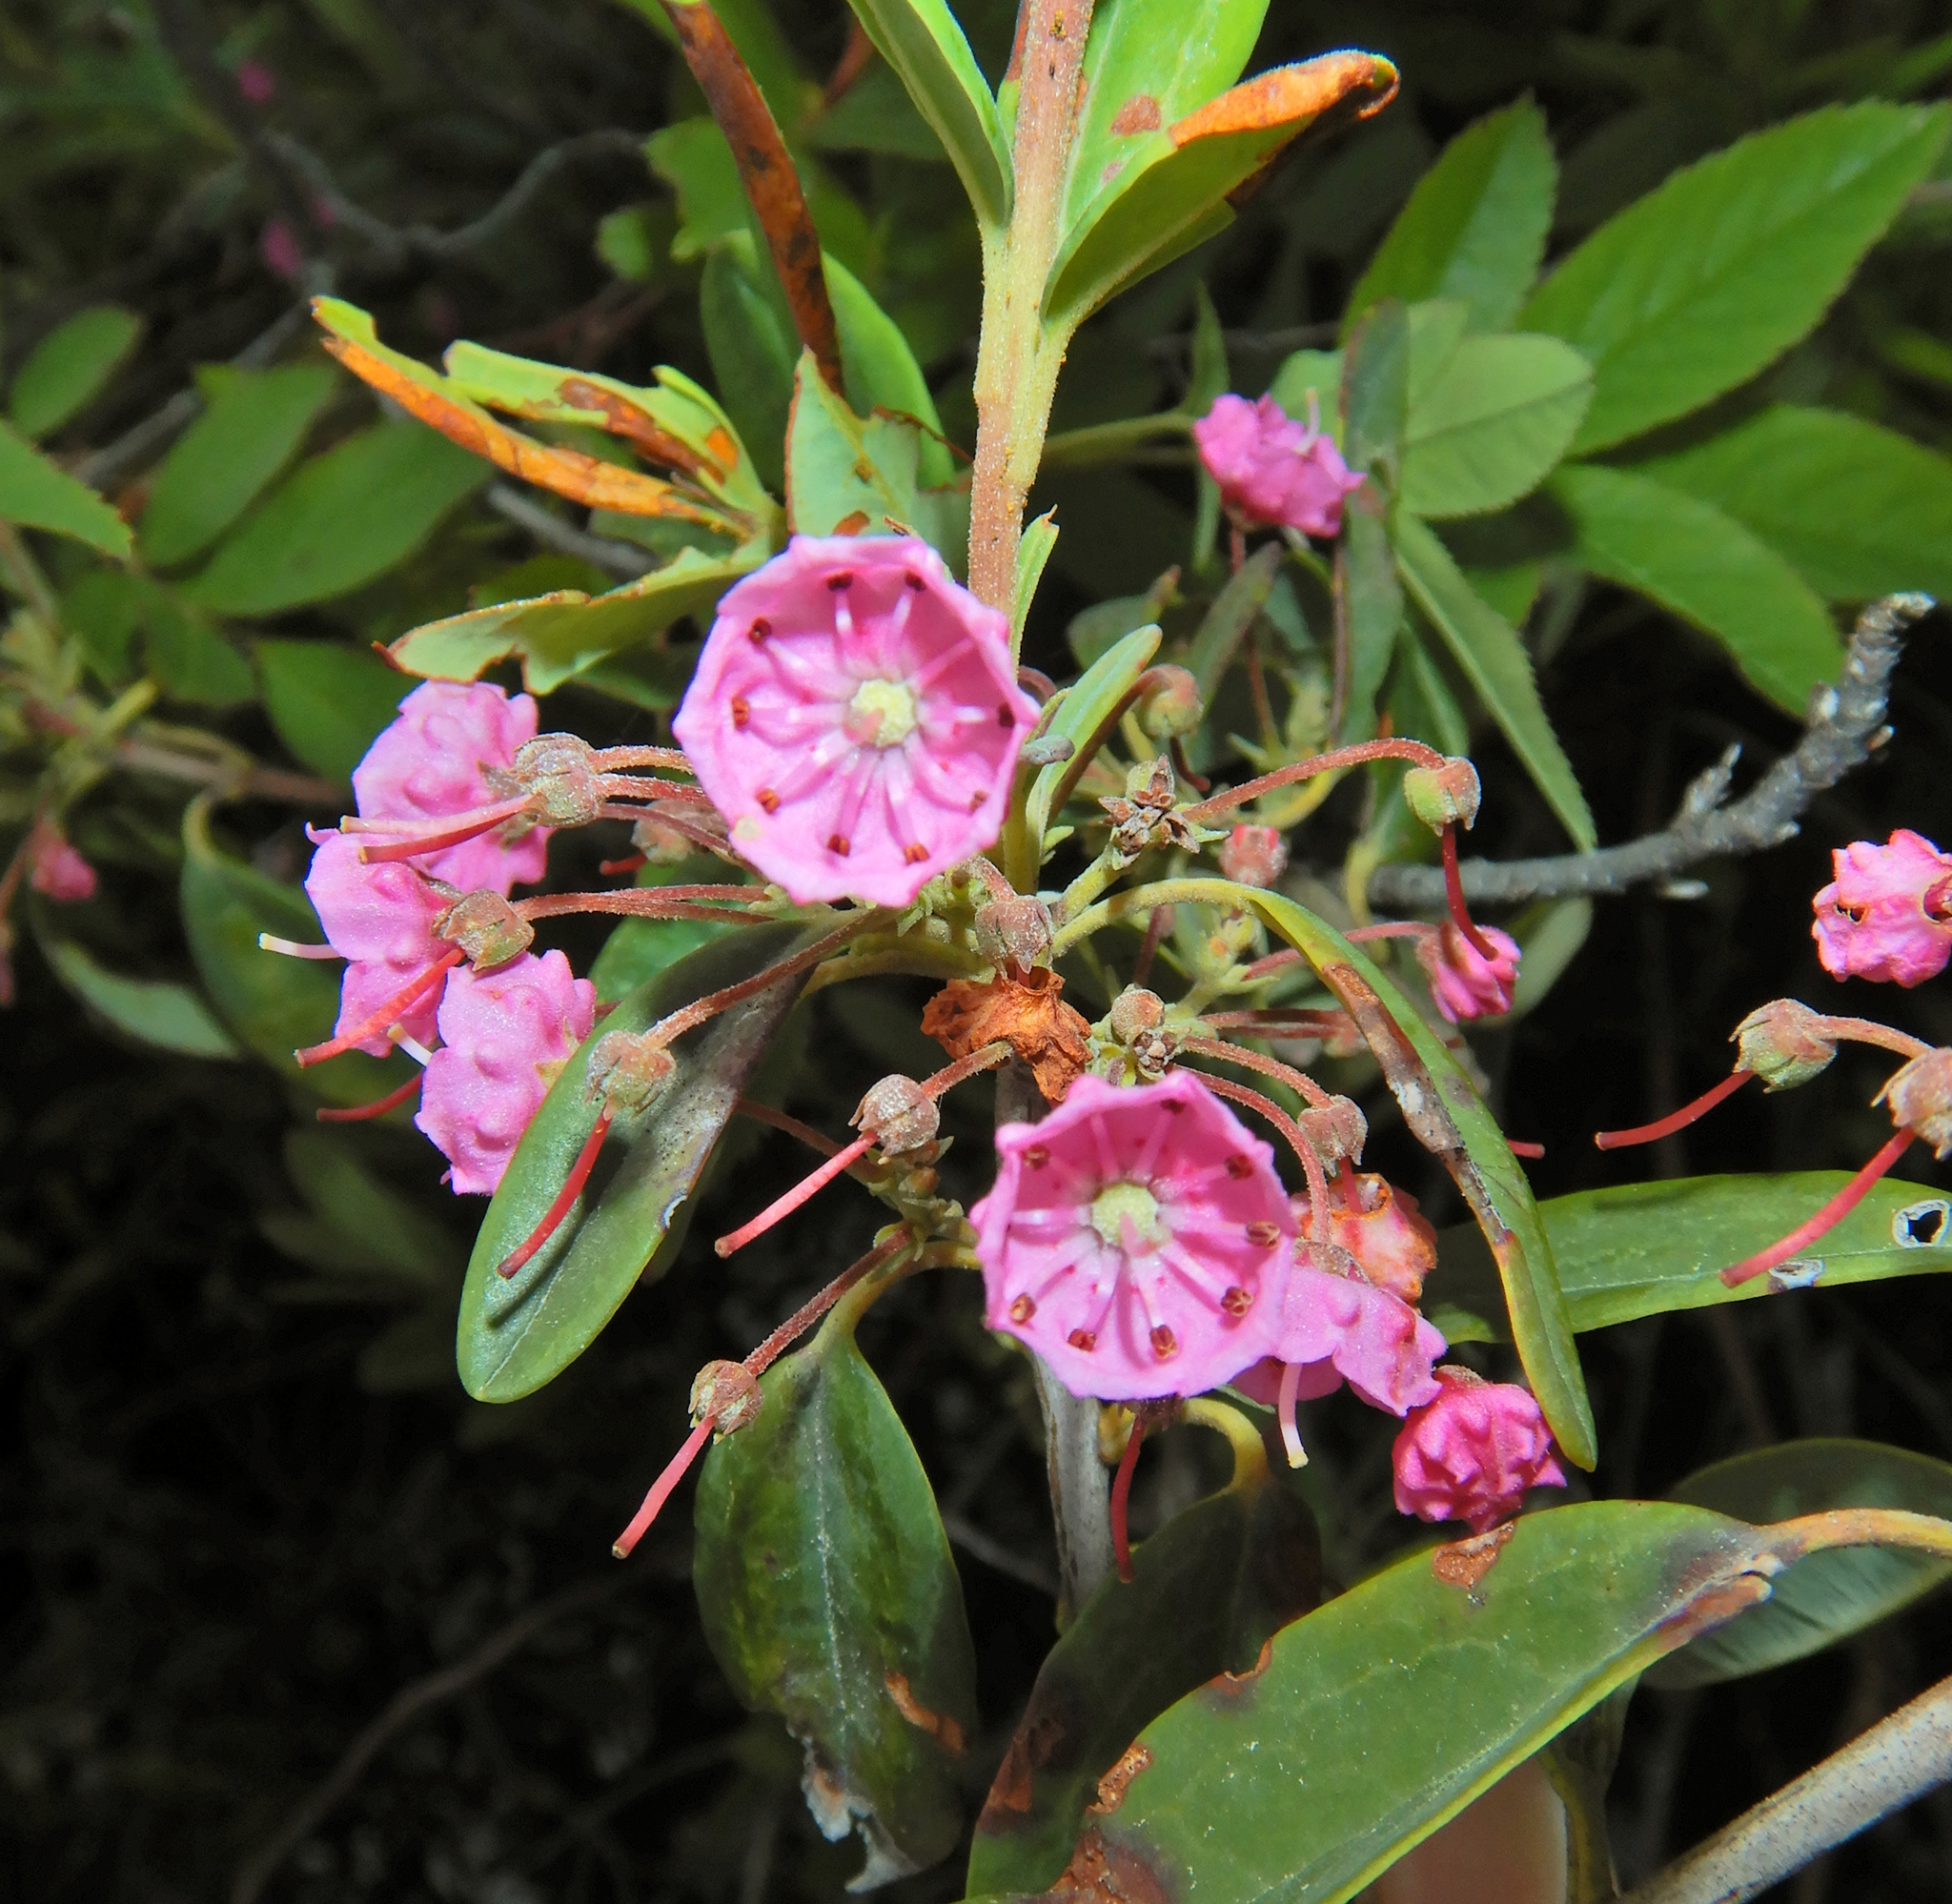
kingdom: Plantae
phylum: Tracheophyta
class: Magnoliopsida
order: Ericales
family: Ericaceae
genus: Kalmia
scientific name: Kalmia angustifolia
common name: Sheep-laurel
